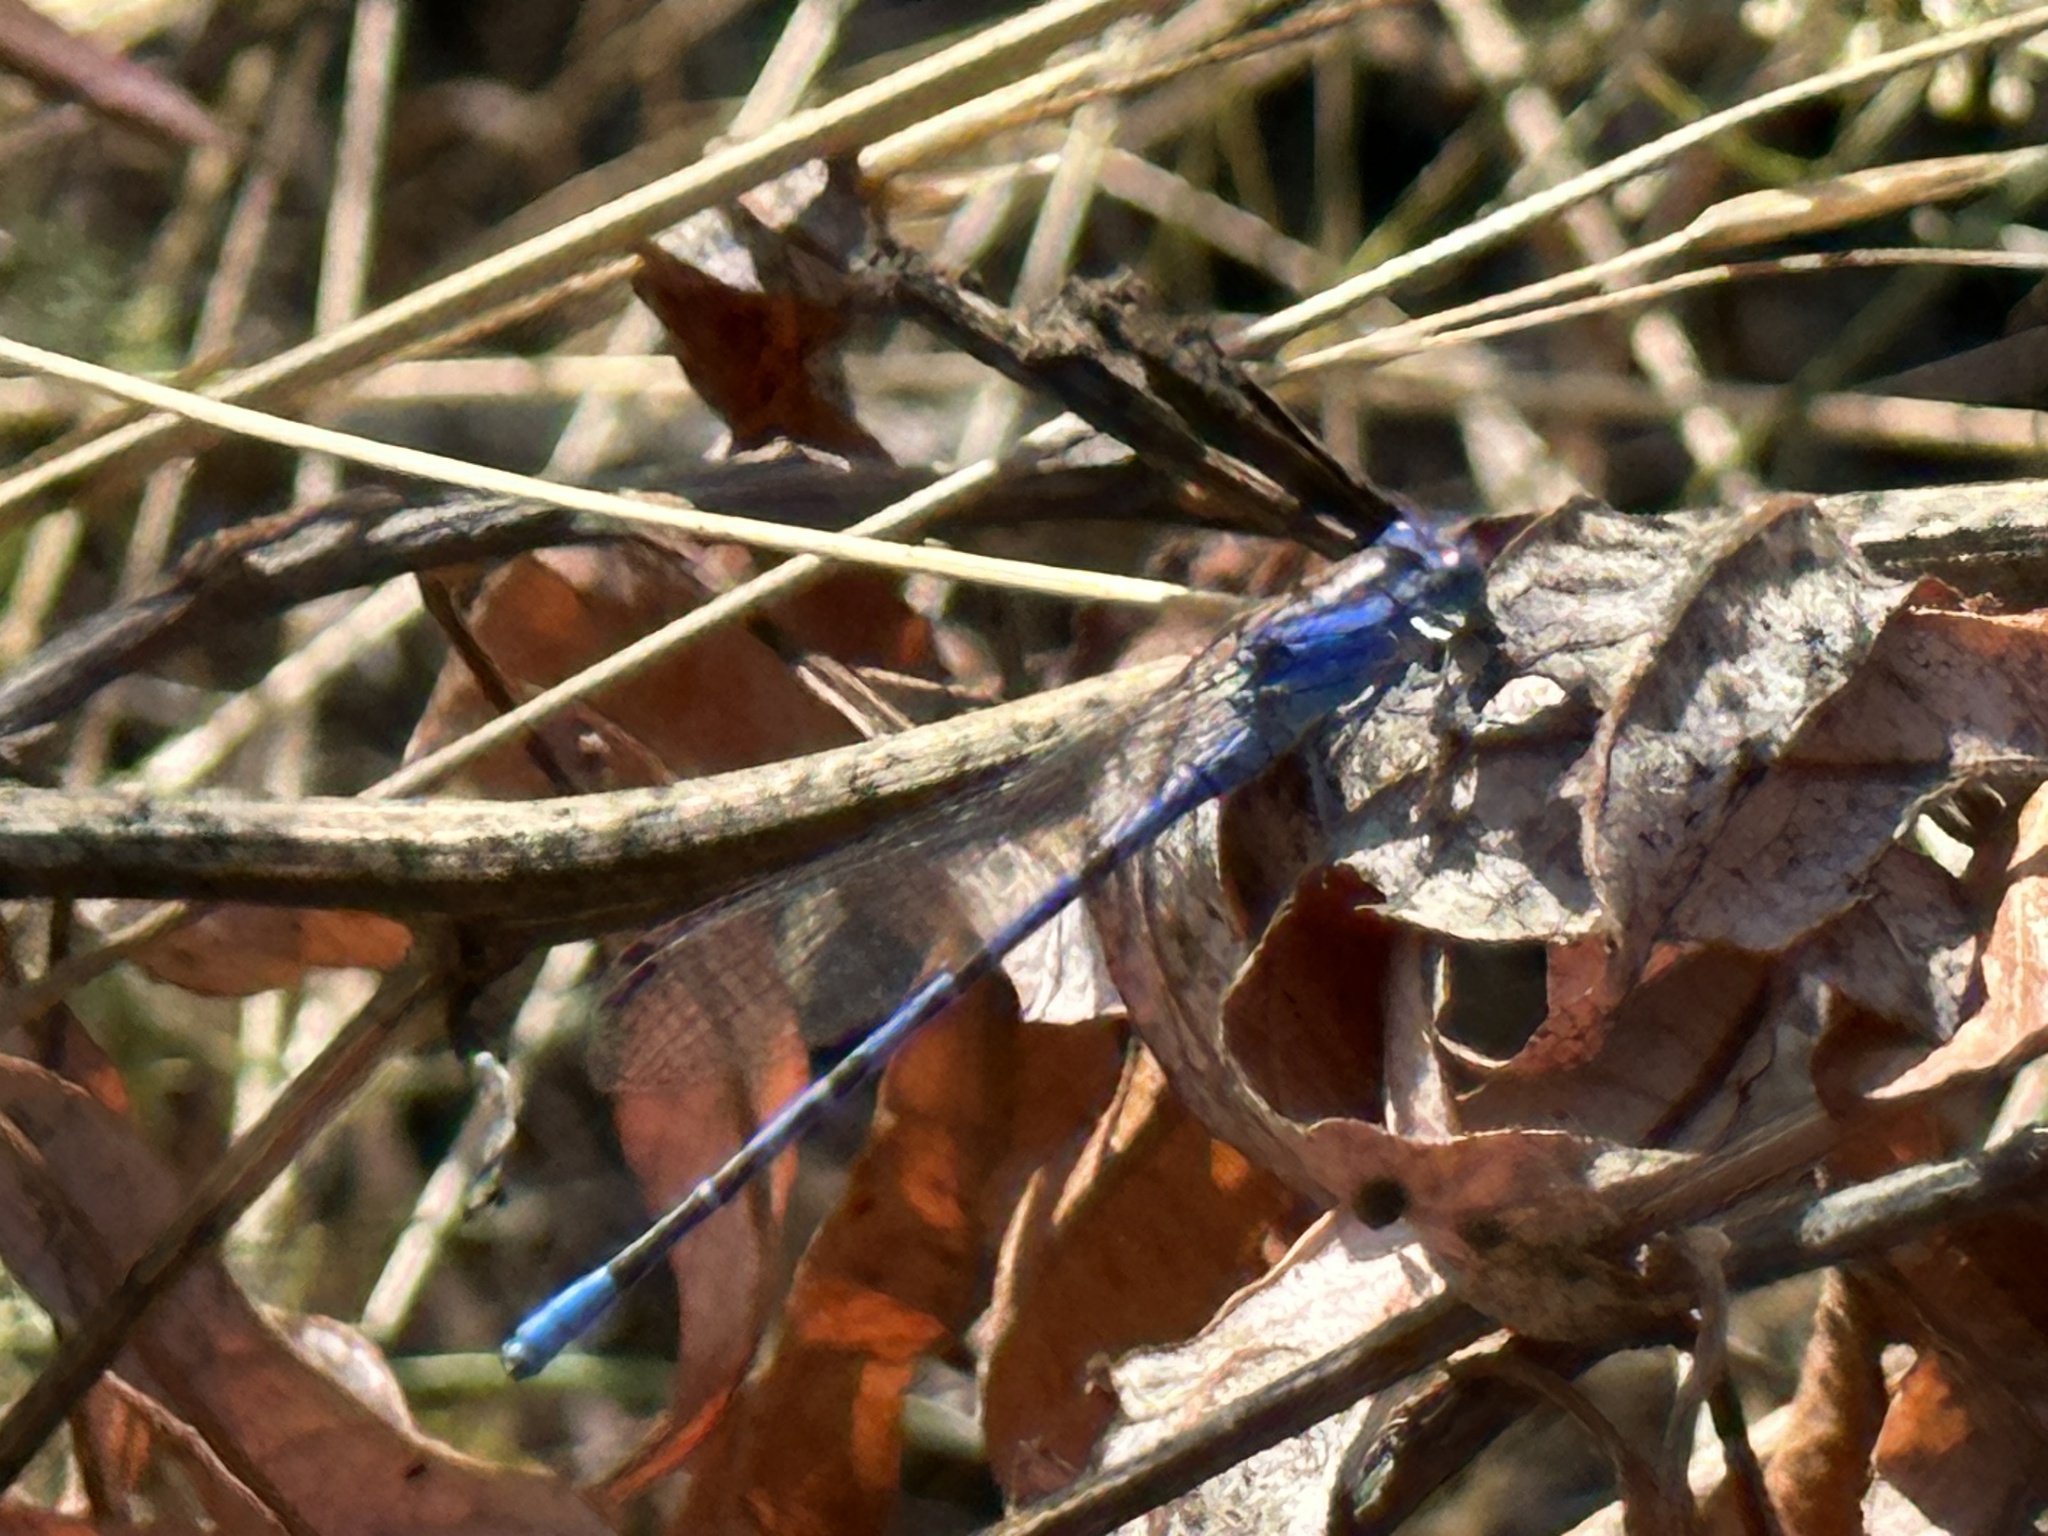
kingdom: Animalia
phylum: Arthropoda
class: Insecta
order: Odonata
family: Coenagrionidae
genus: Argia
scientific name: Argia vivida
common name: Vivid dancer
